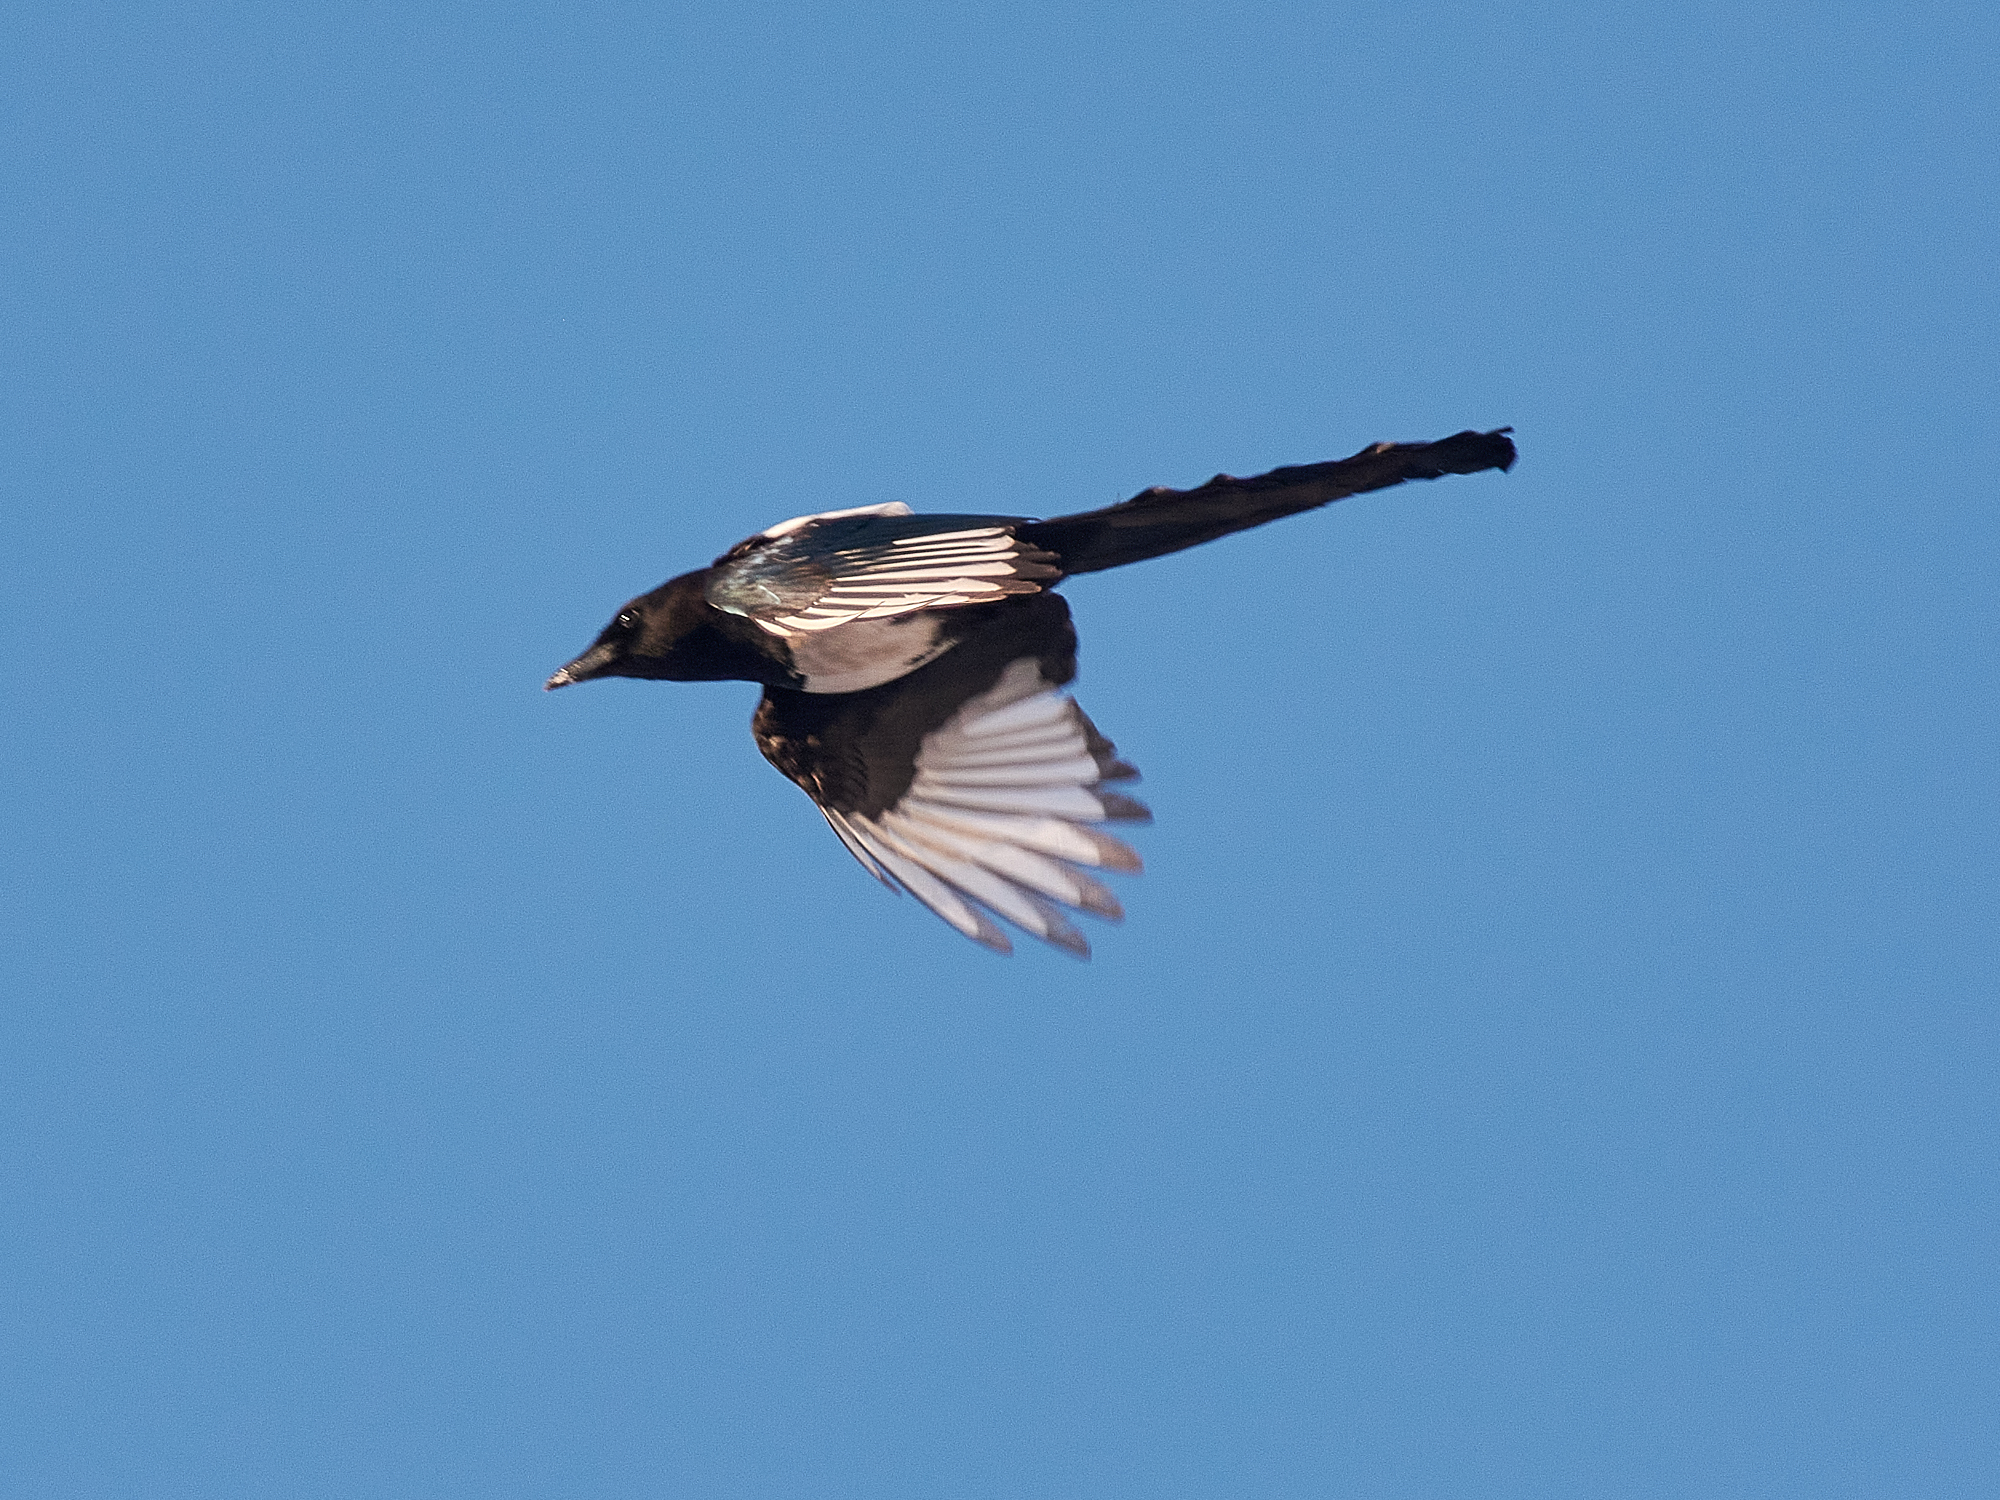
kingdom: Animalia
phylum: Chordata
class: Aves
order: Passeriformes
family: Corvidae
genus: Pica
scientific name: Pica pica
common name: Eurasian magpie
